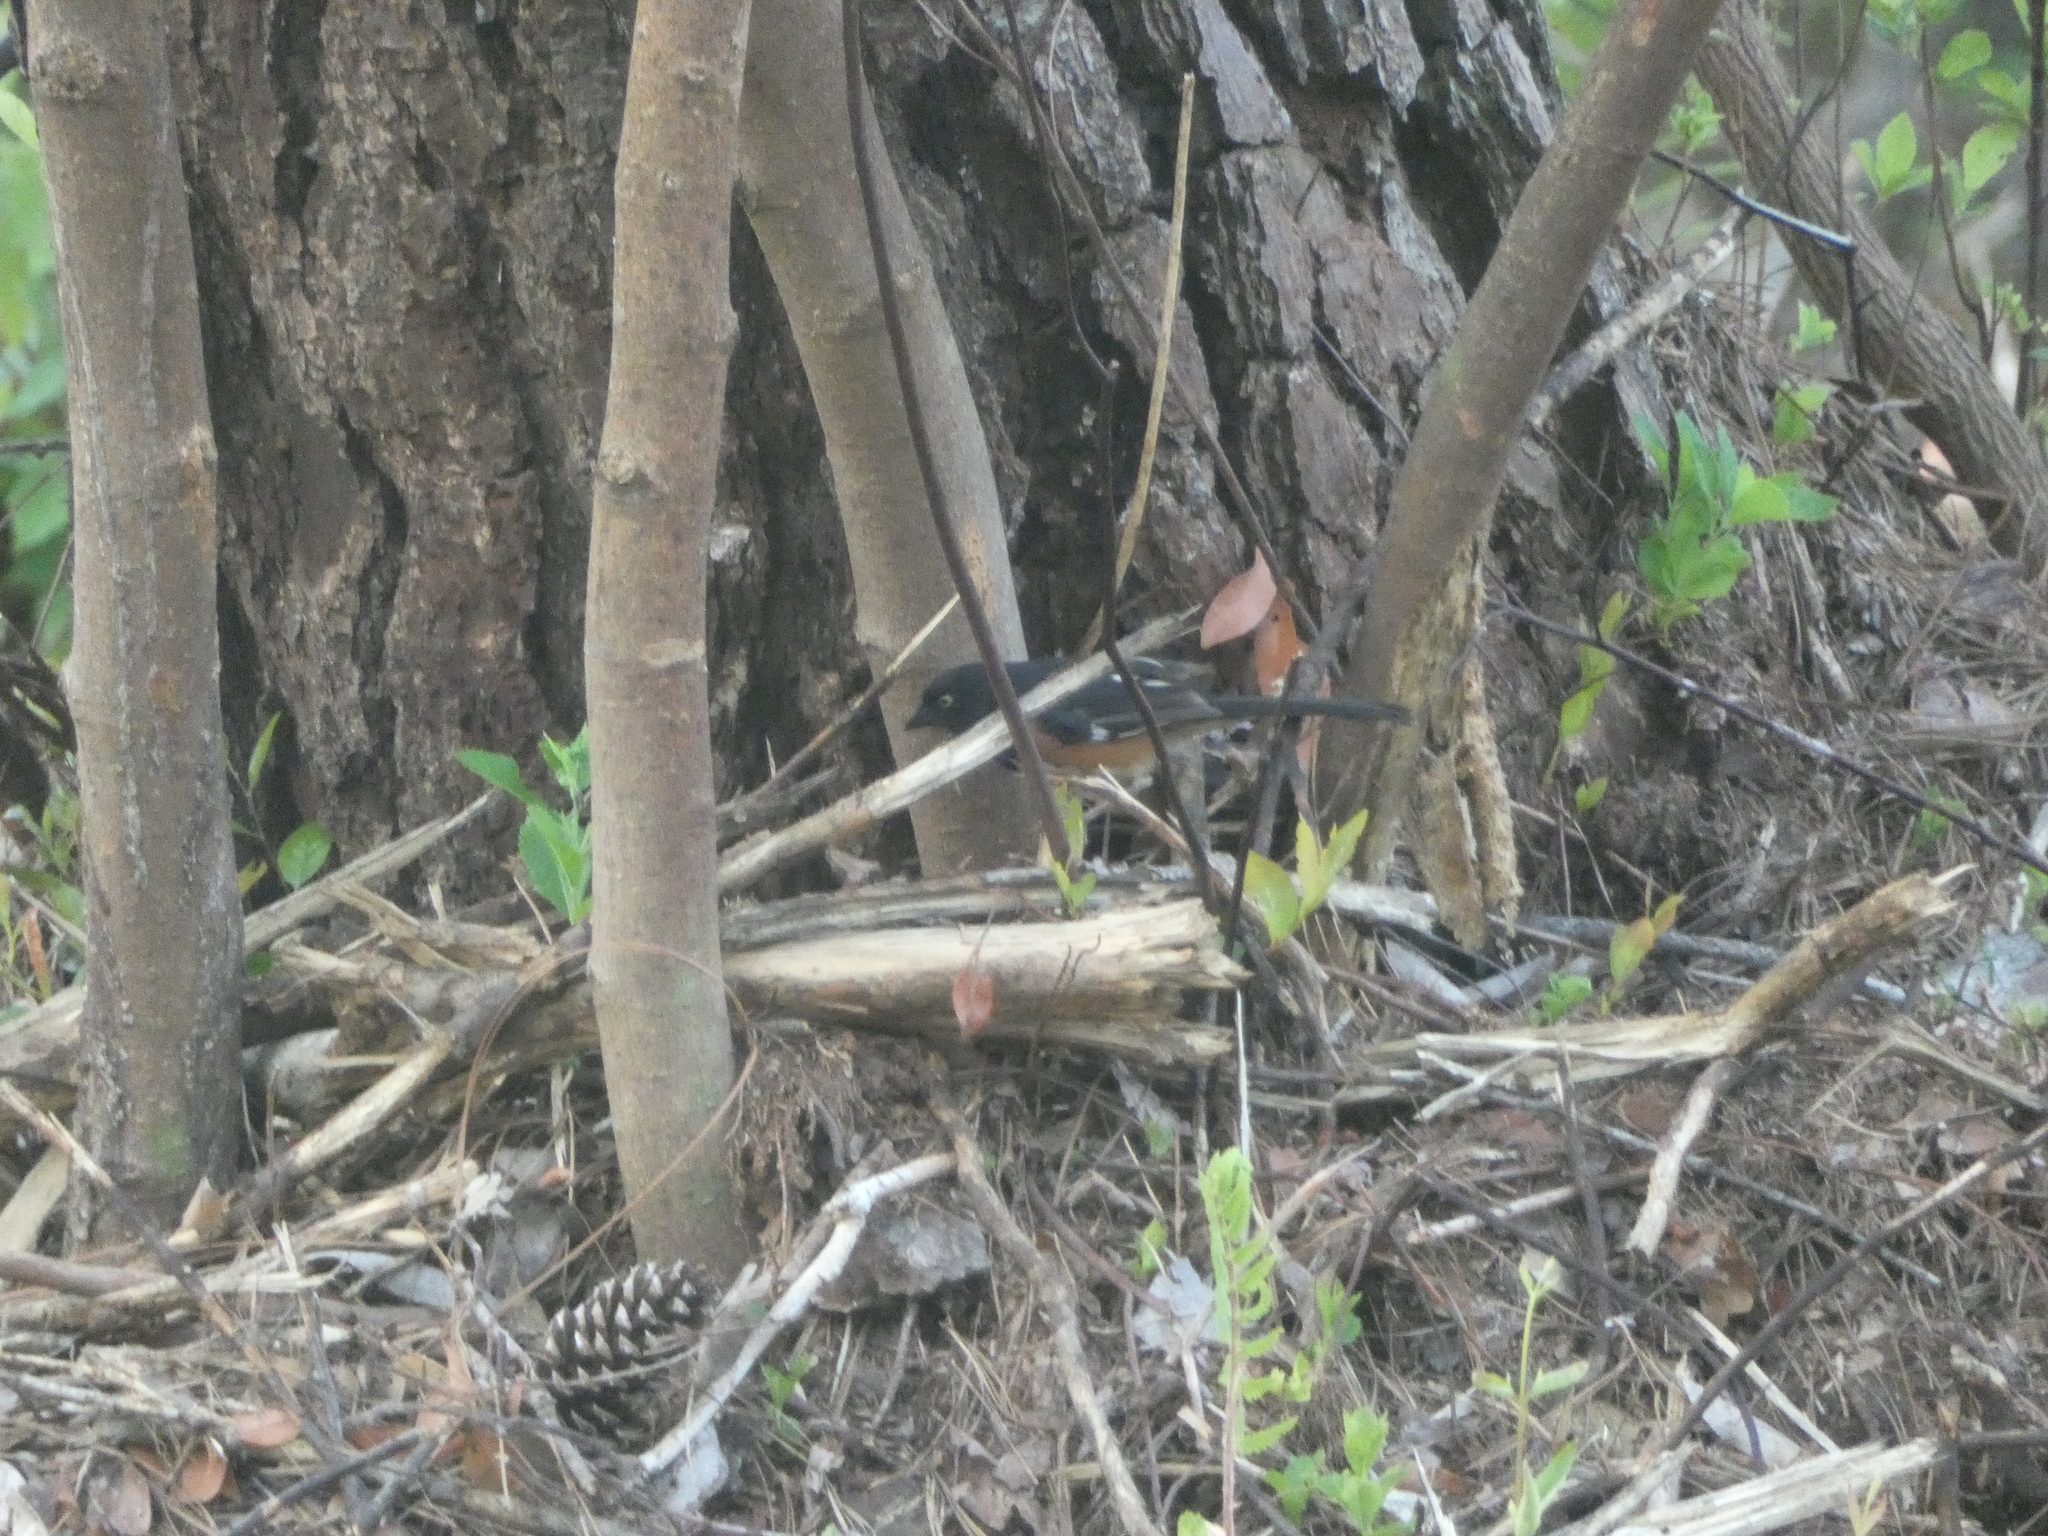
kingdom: Animalia
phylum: Chordata
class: Aves
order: Passeriformes
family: Passerellidae
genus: Pipilo
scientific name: Pipilo erythrophthalmus
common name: Eastern towhee
